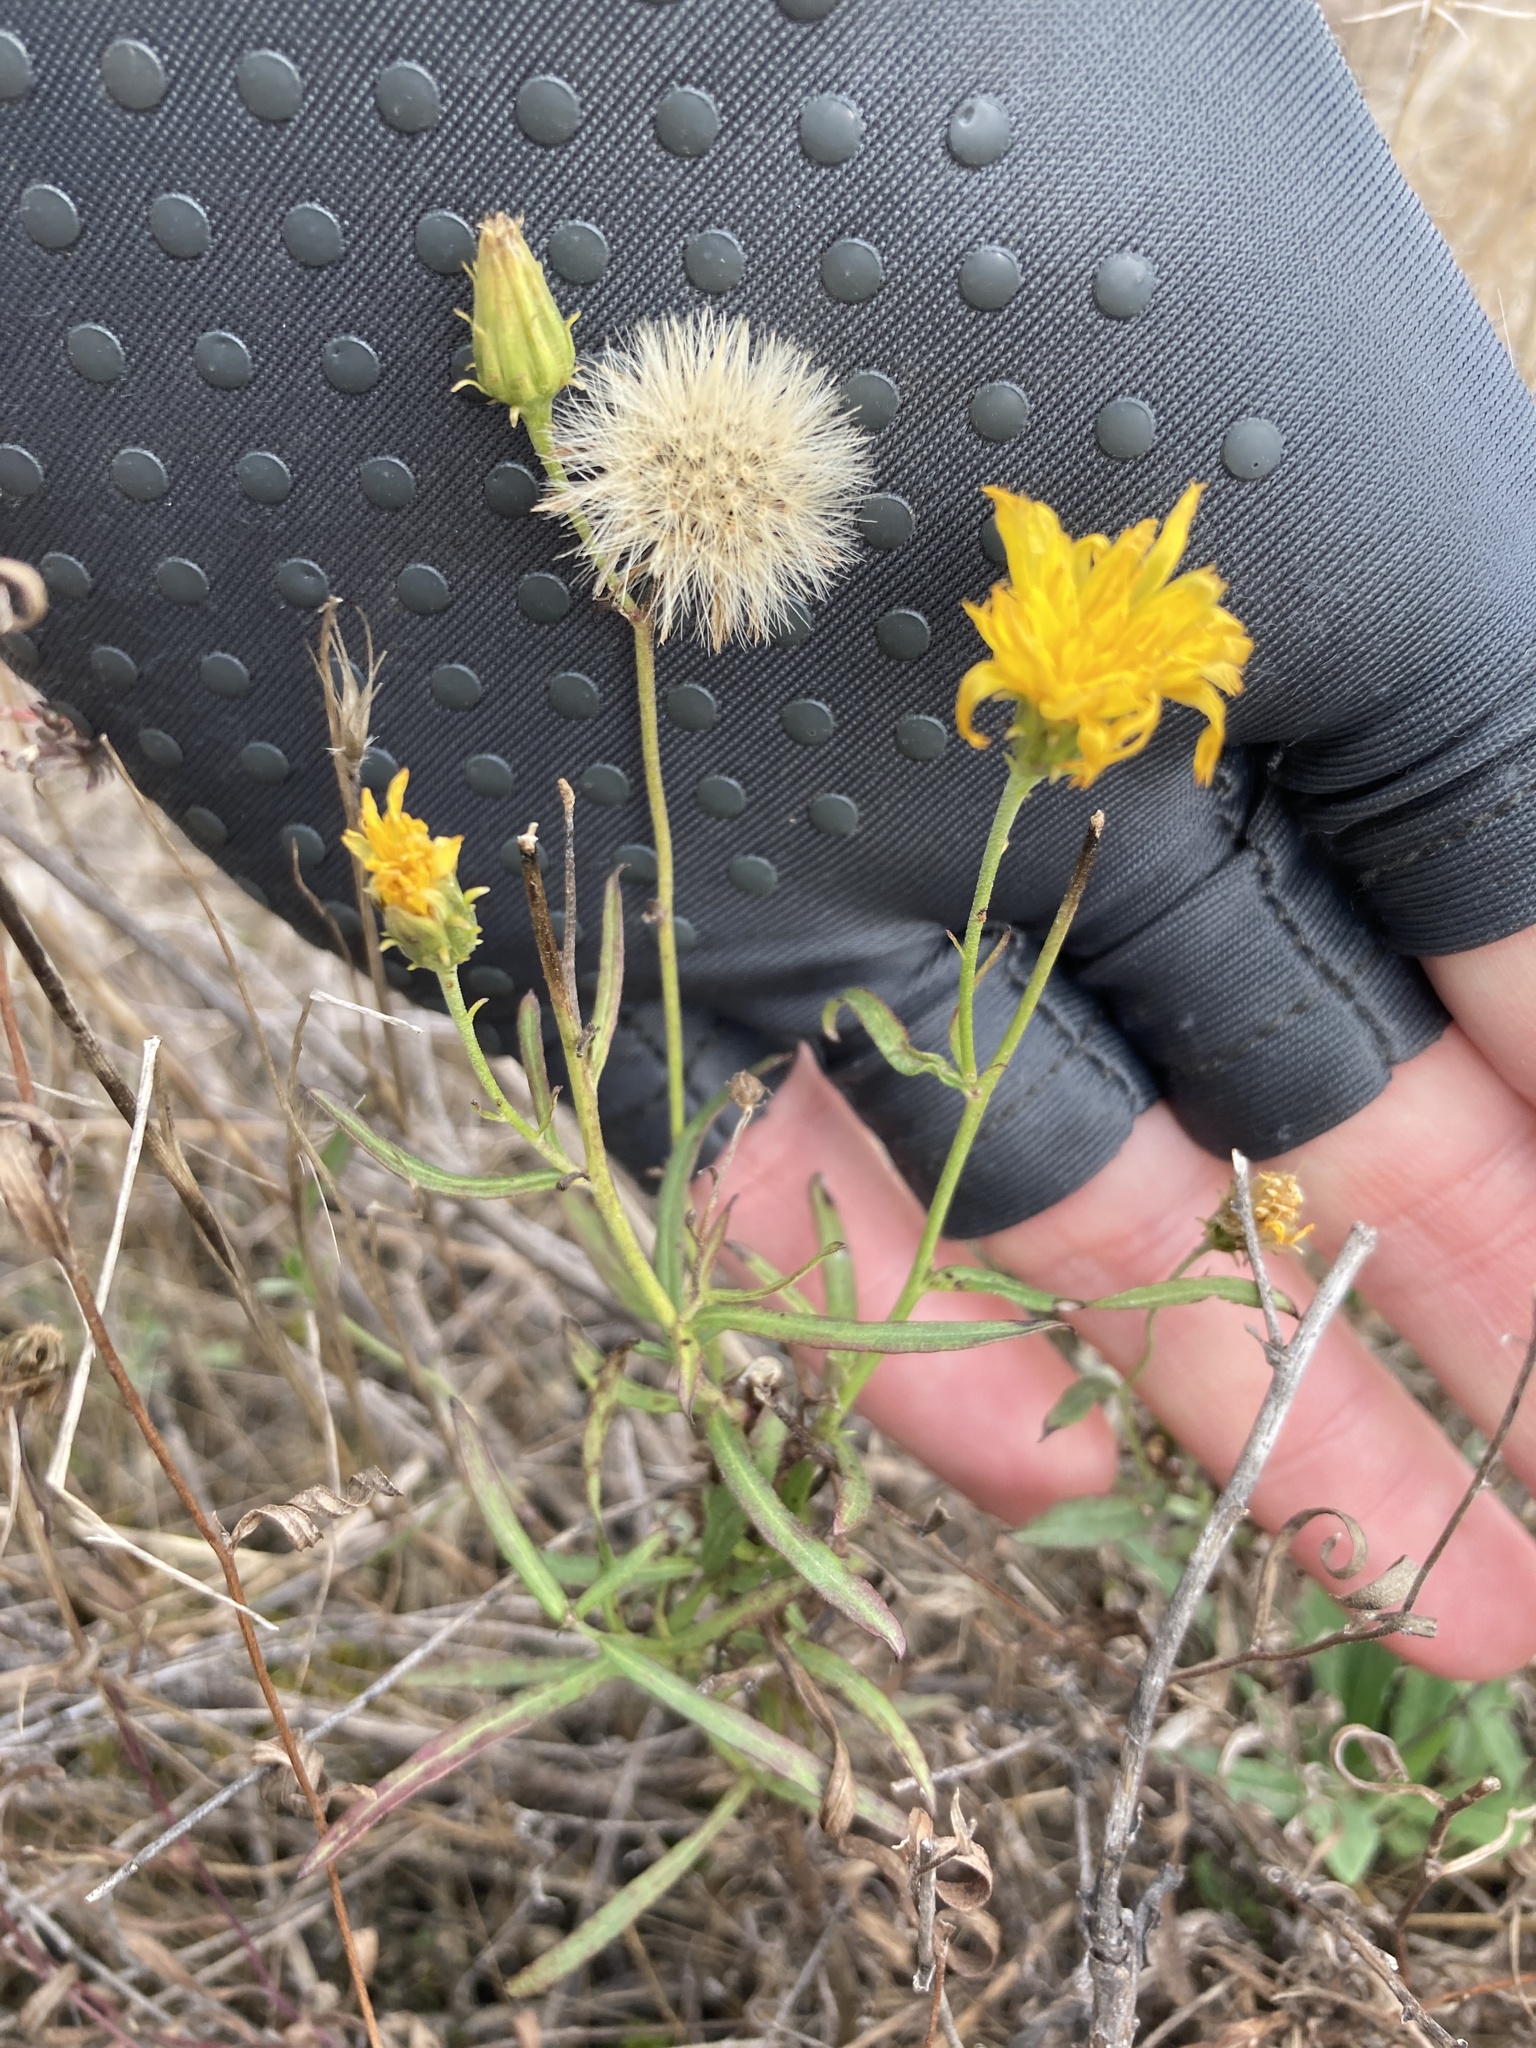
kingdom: Plantae
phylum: Tracheophyta
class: Magnoliopsida
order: Asterales
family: Asteraceae
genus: Hieracium
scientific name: Hieracium umbellatum
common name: Northern hawkweed
